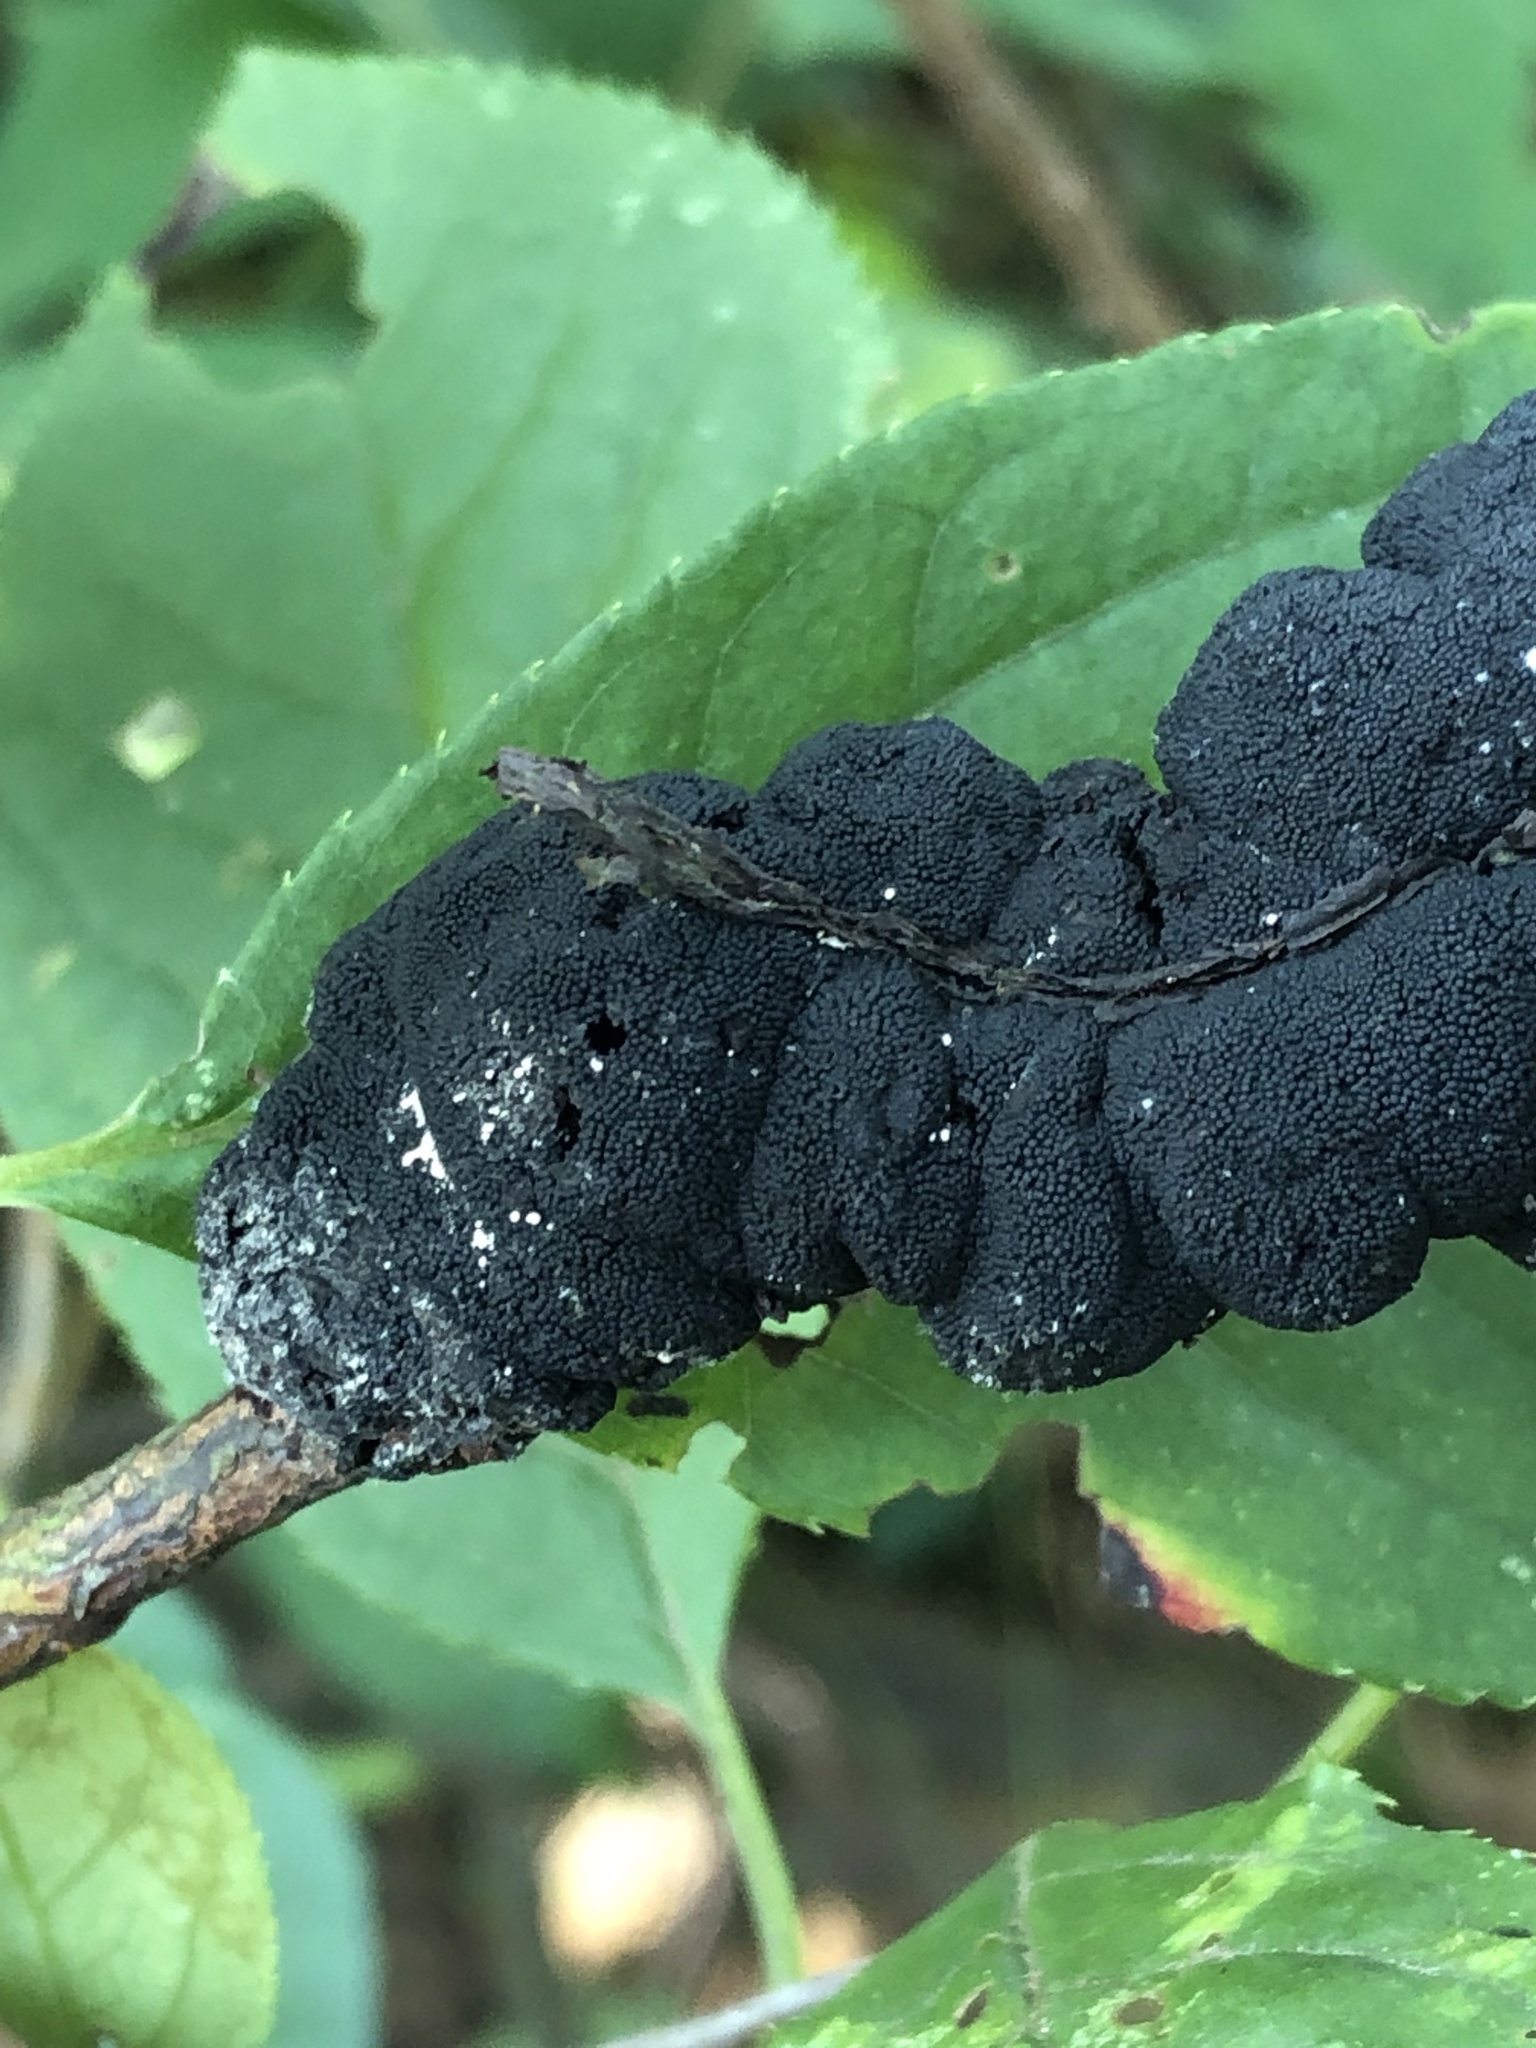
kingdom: Fungi
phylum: Ascomycota
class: Dothideomycetes
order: Venturiales
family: Venturiaceae
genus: Apiosporina
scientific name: Apiosporina morbosa
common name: Black knot
